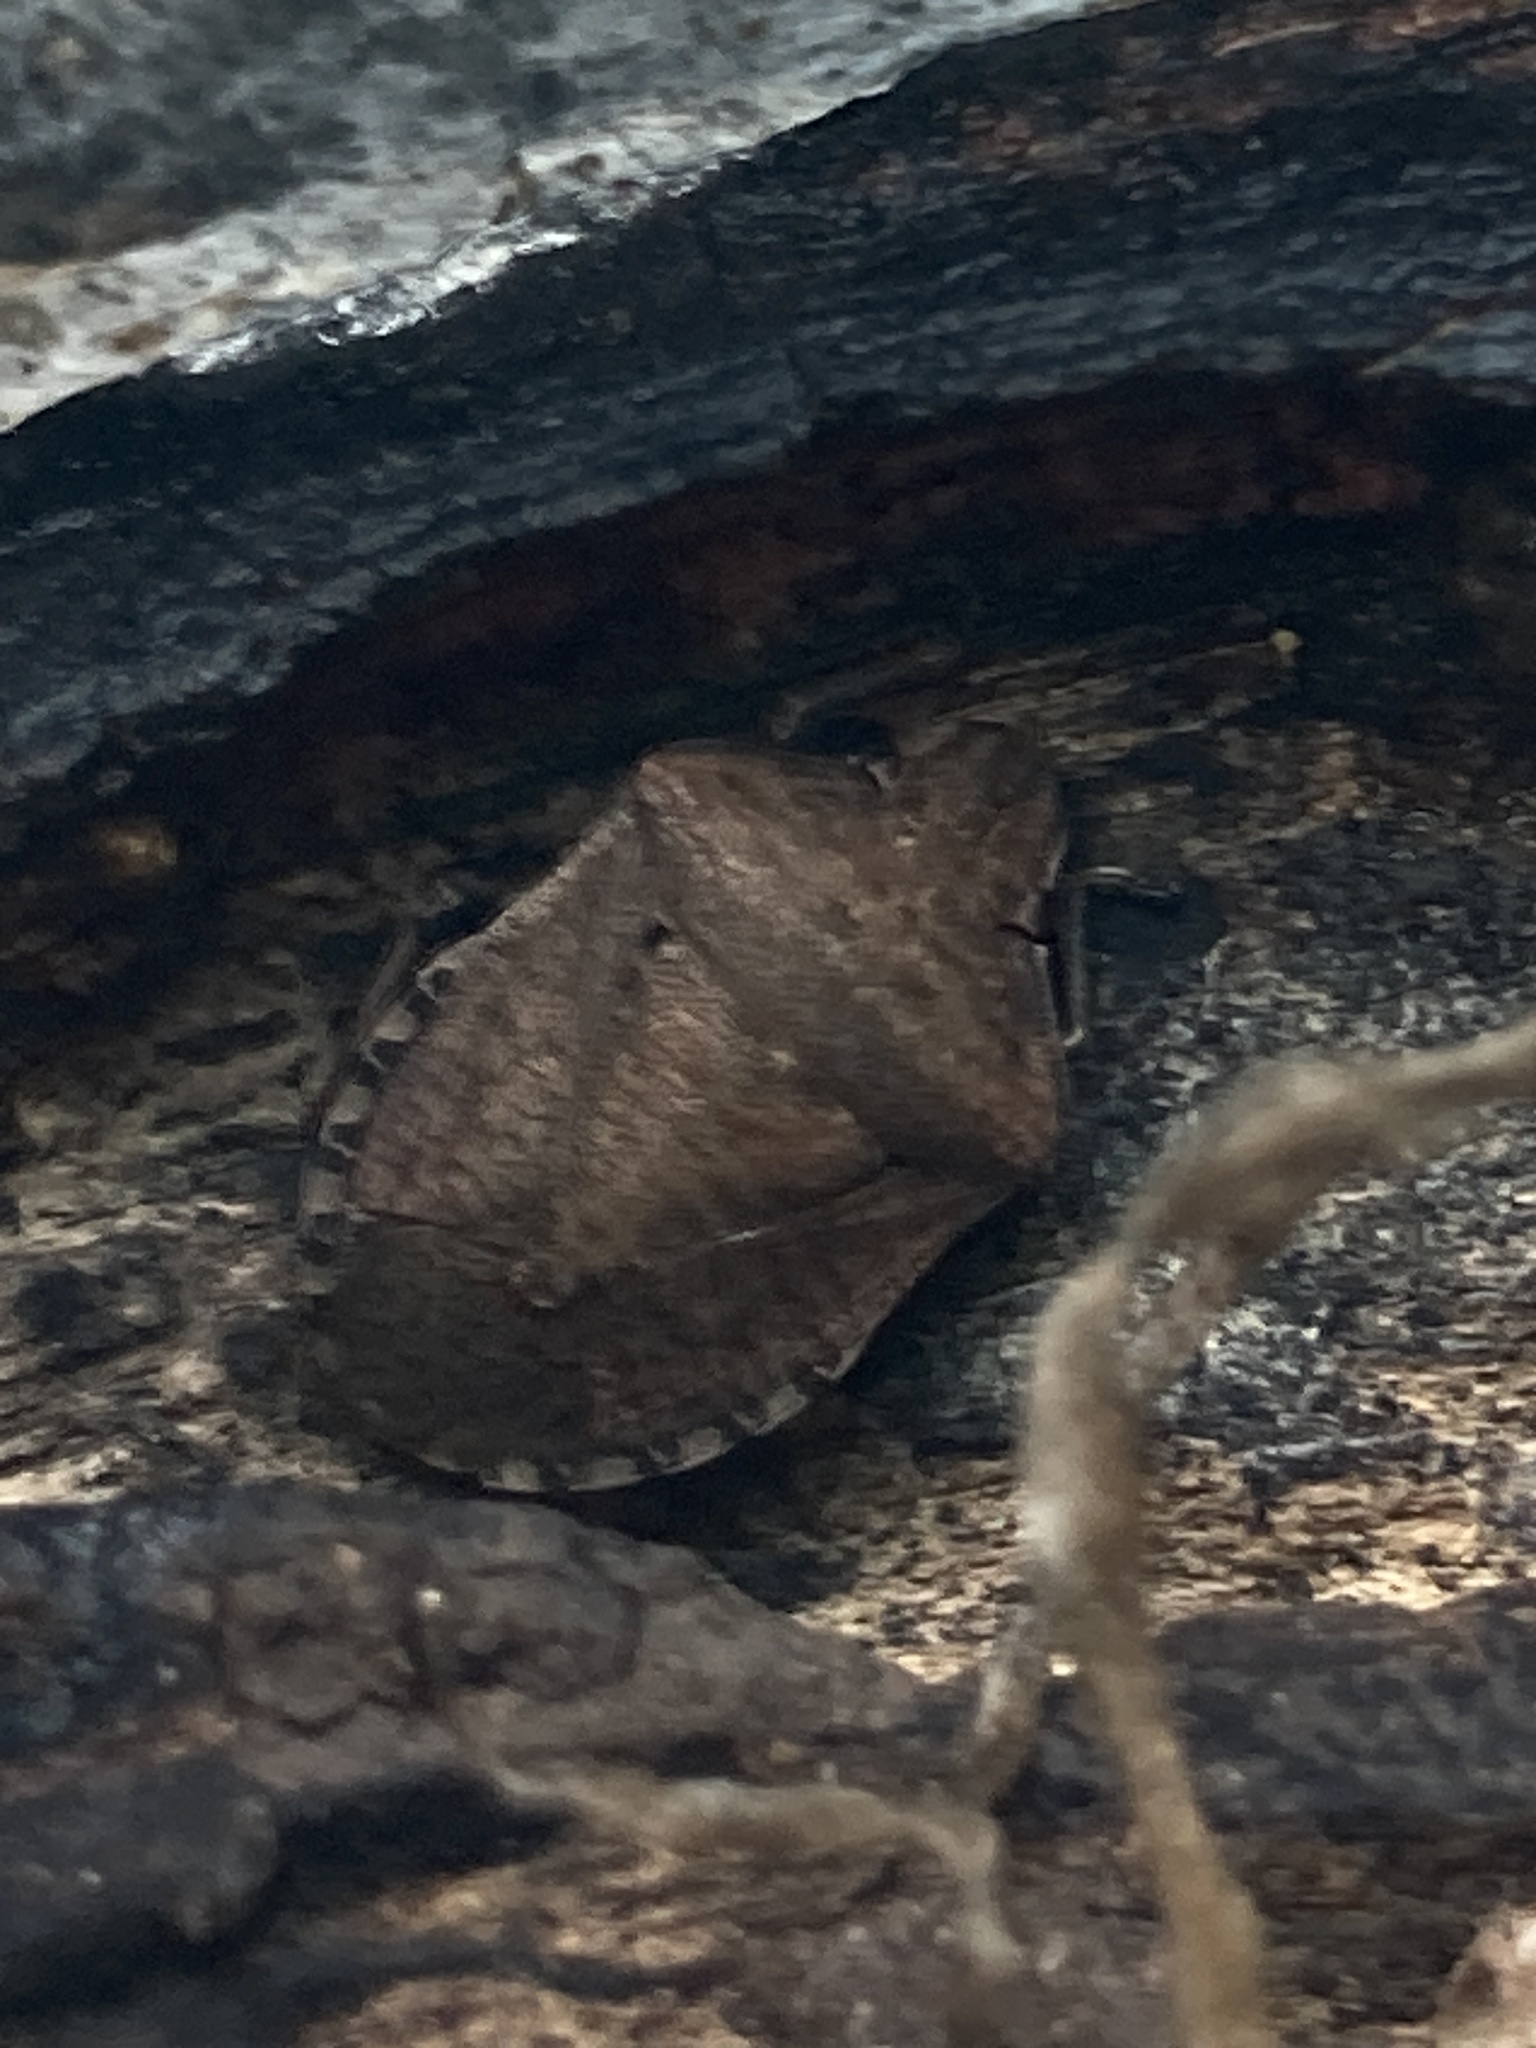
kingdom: Animalia
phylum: Arthropoda
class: Insecta
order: Hemiptera
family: Pentatomidae
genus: Dictyotus
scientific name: Dictyotus caenosus
